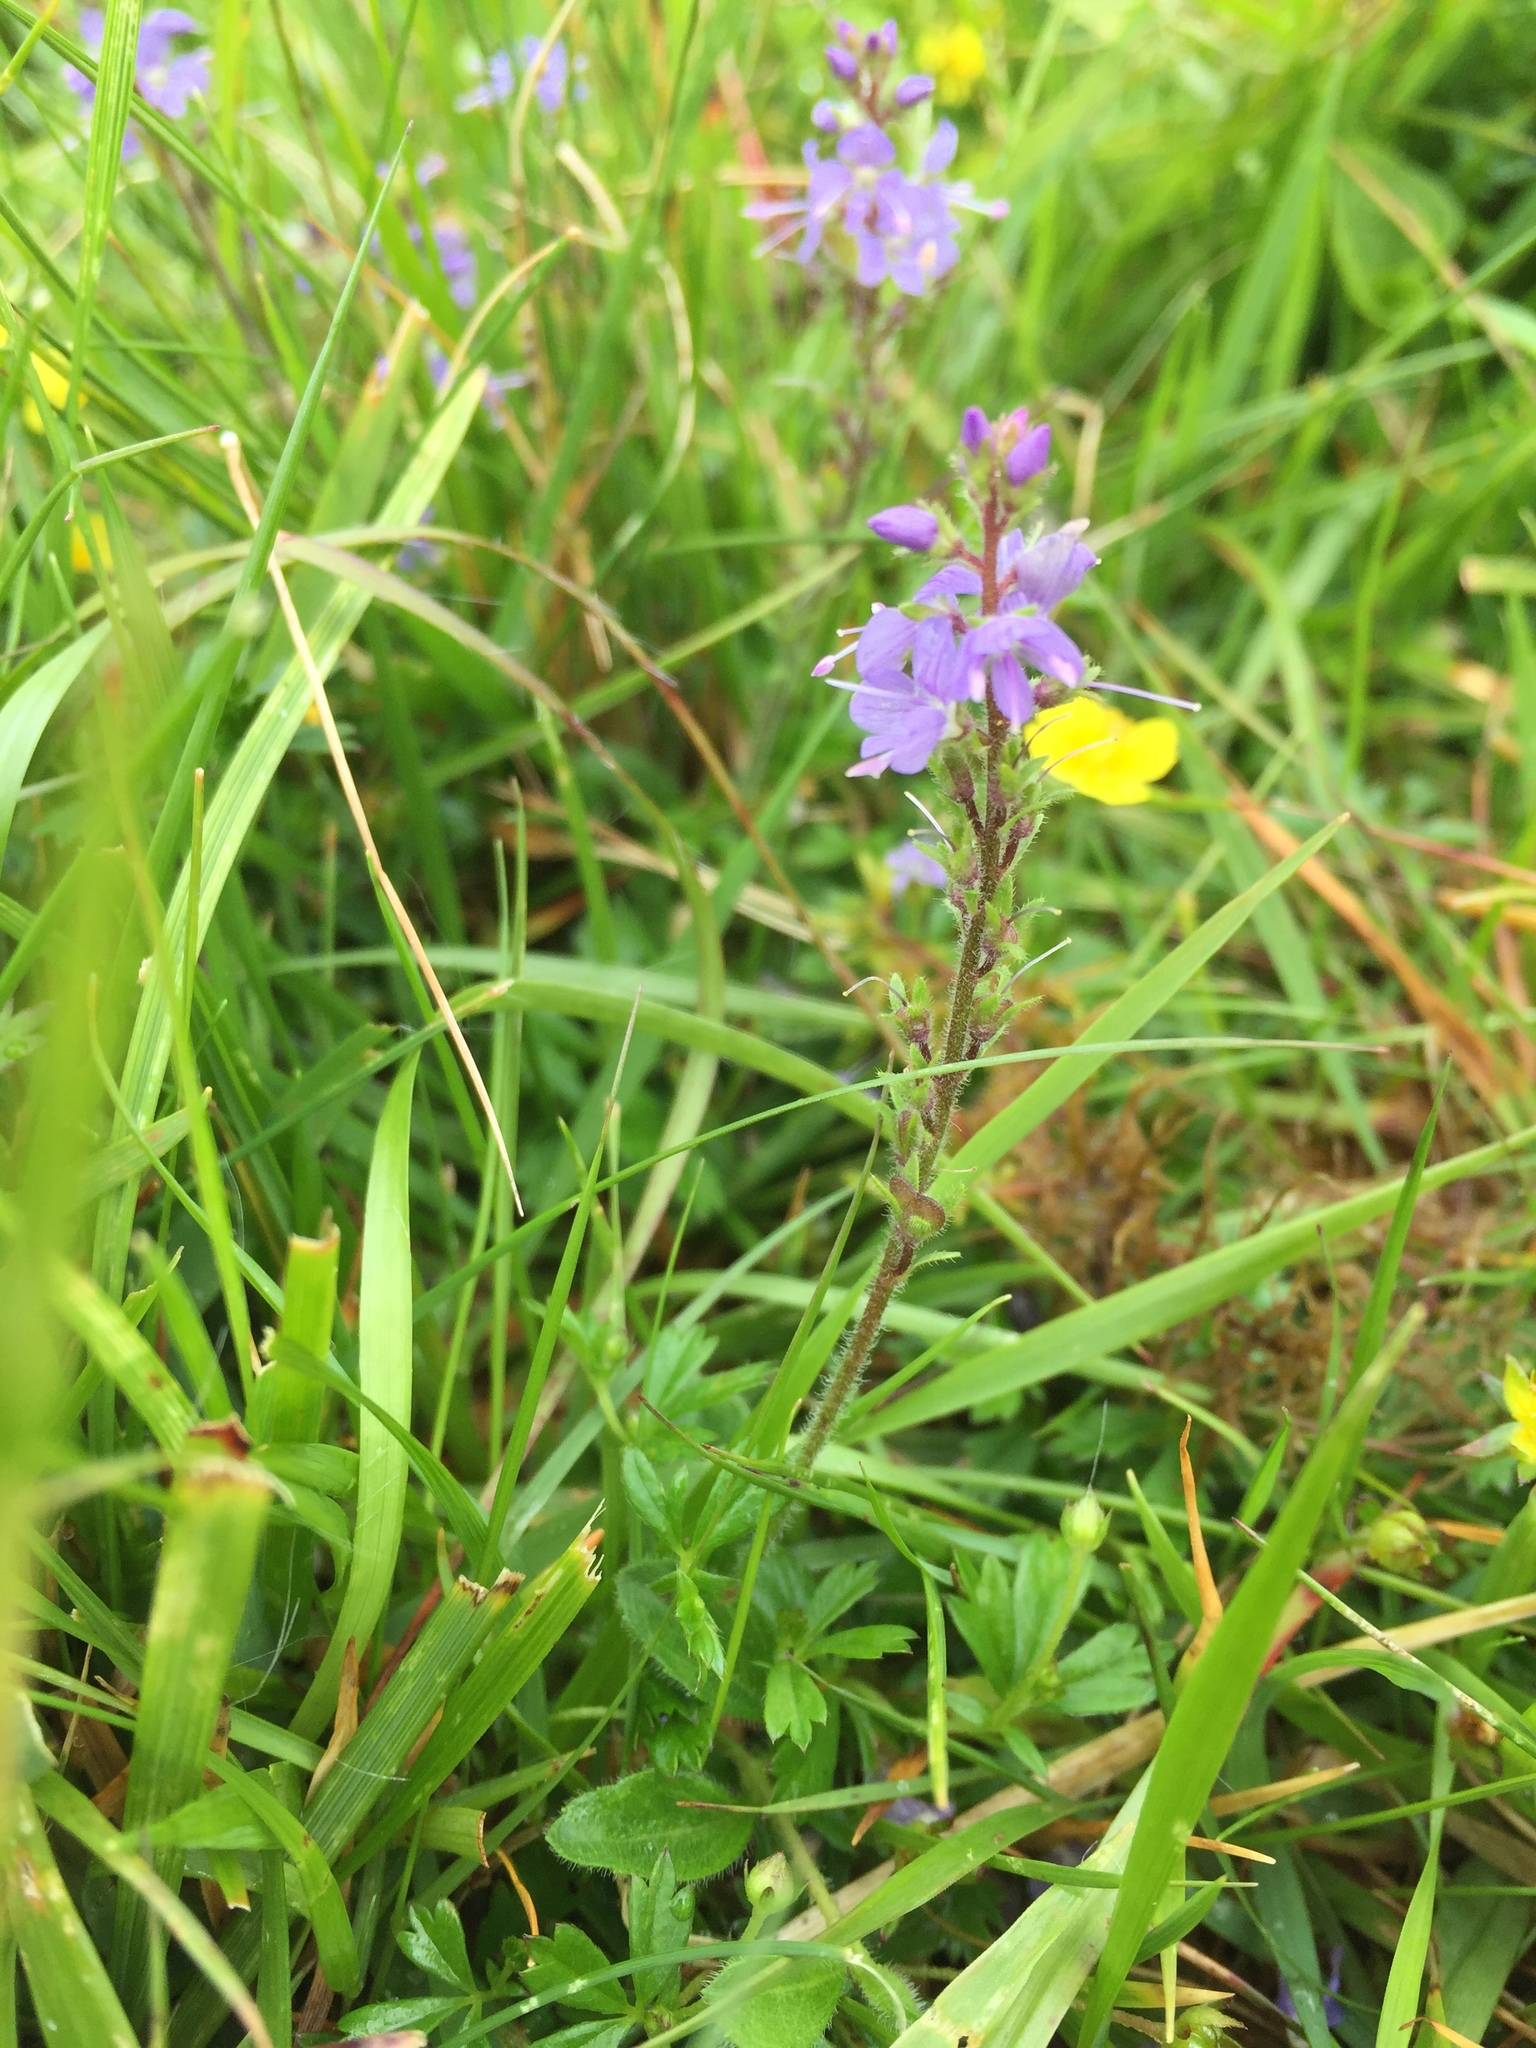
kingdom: Plantae
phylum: Tracheophyta
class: Magnoliopsida
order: Lamiales
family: Plantaginaceae
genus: Veronica
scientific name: Veronica officinalis
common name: Common speedwell
